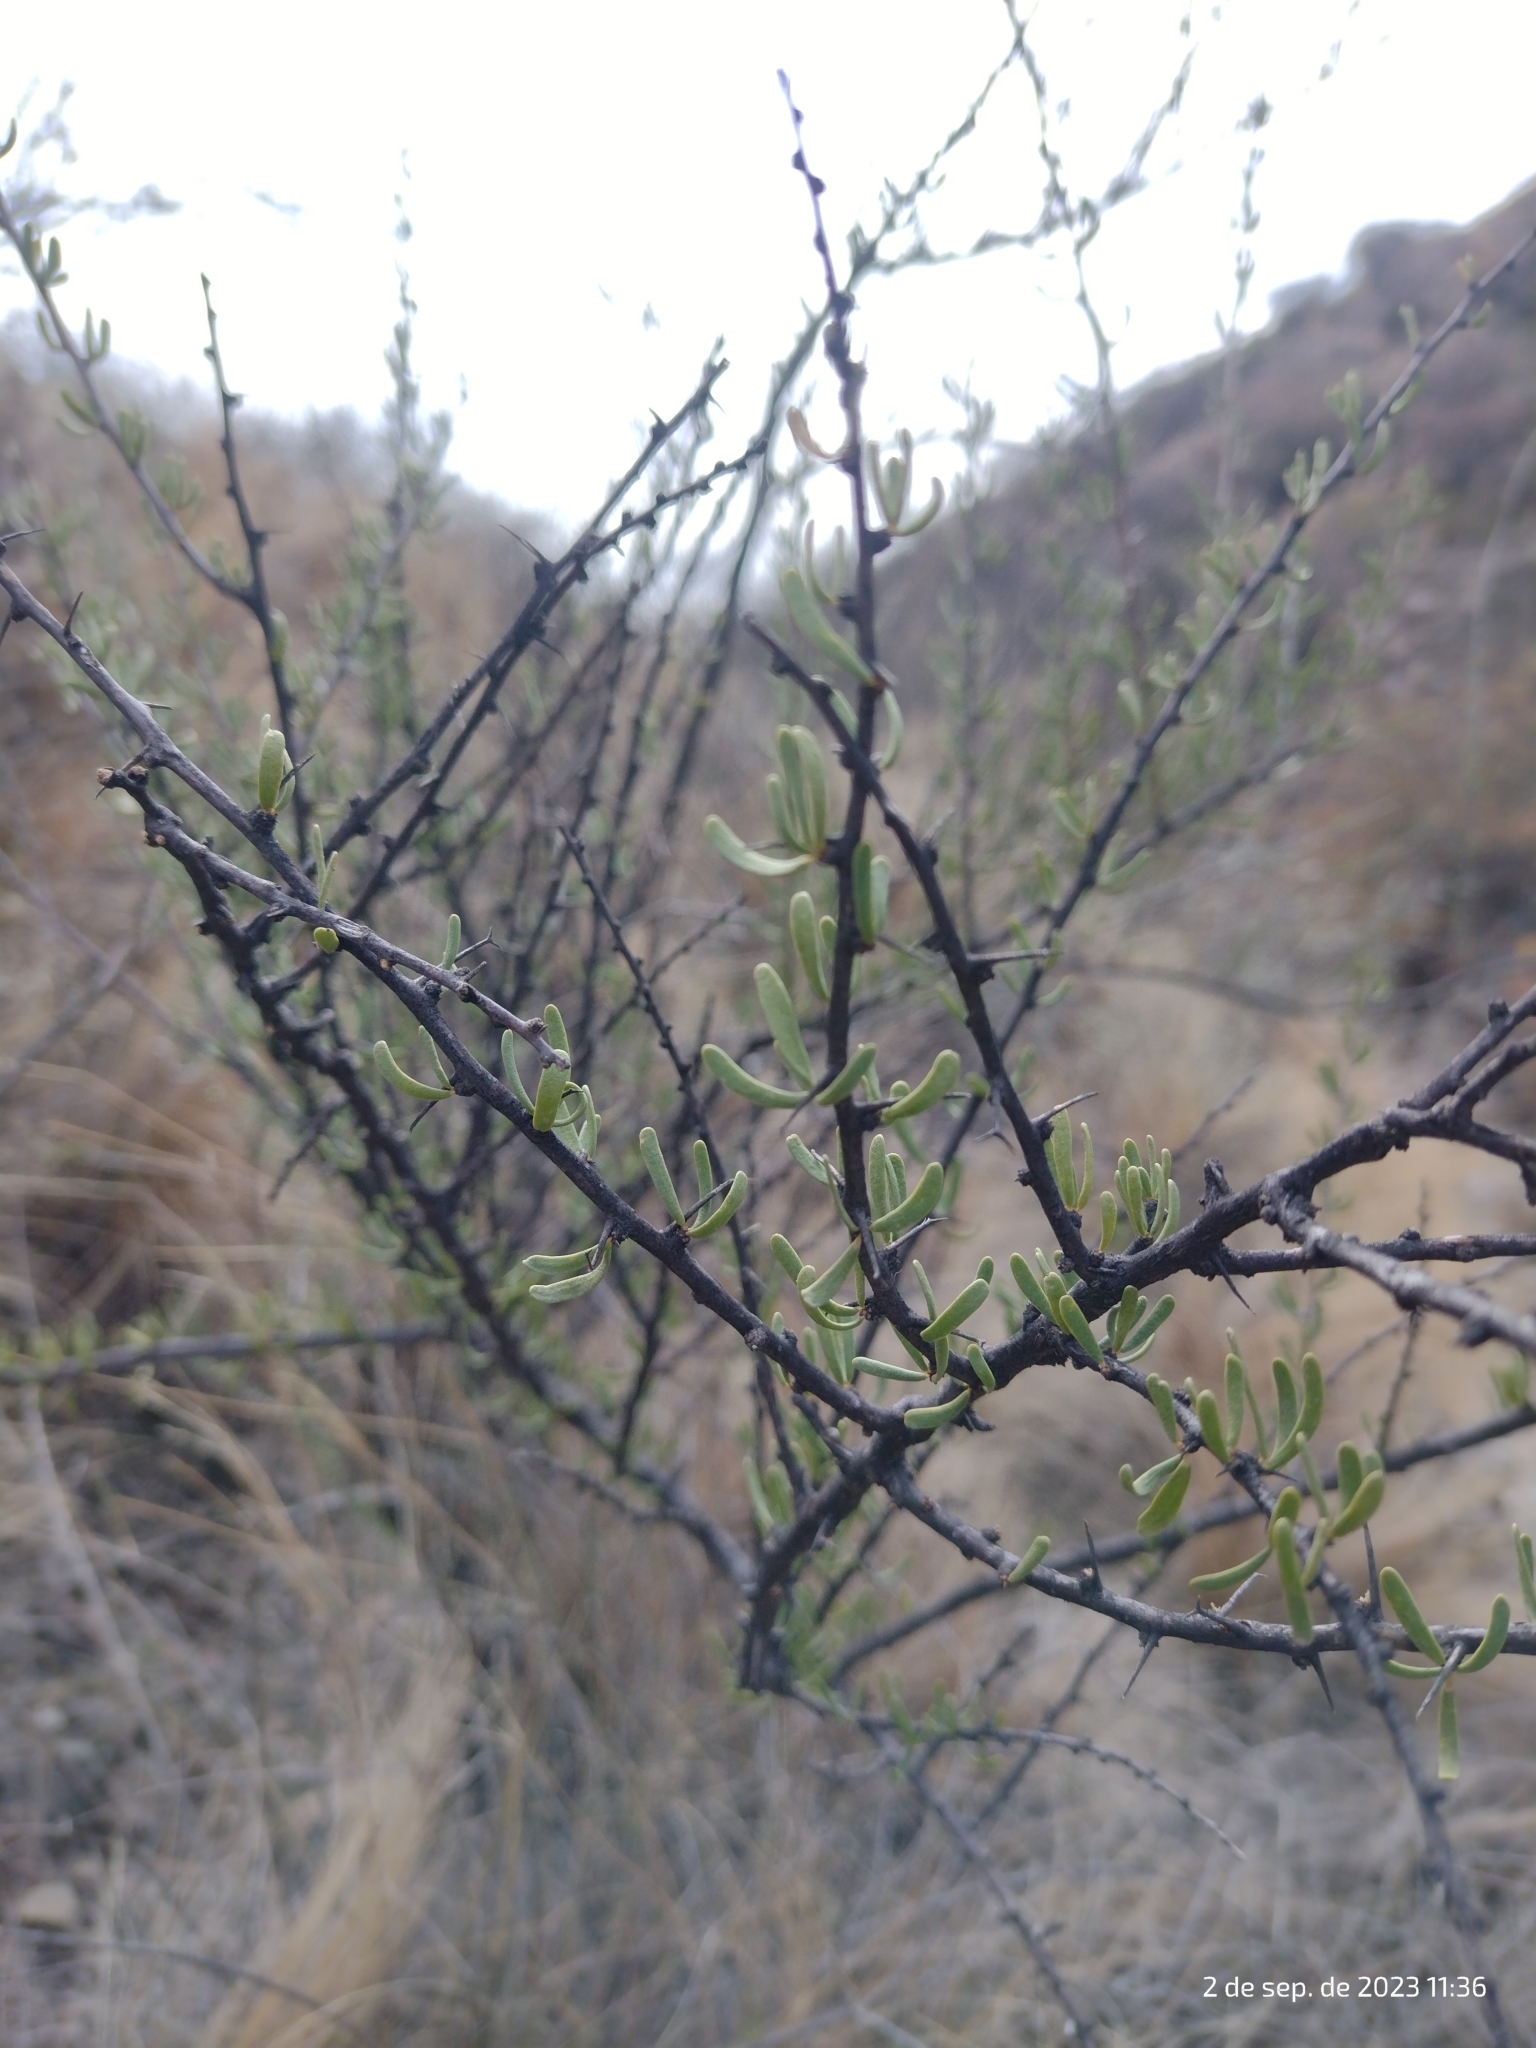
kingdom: Plantae
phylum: Tracheophyta
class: Magnoliopsida
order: Caryophyllales
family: Nyctaginaceae
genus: Bougainvillea
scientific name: Bougainvillea spinosa
